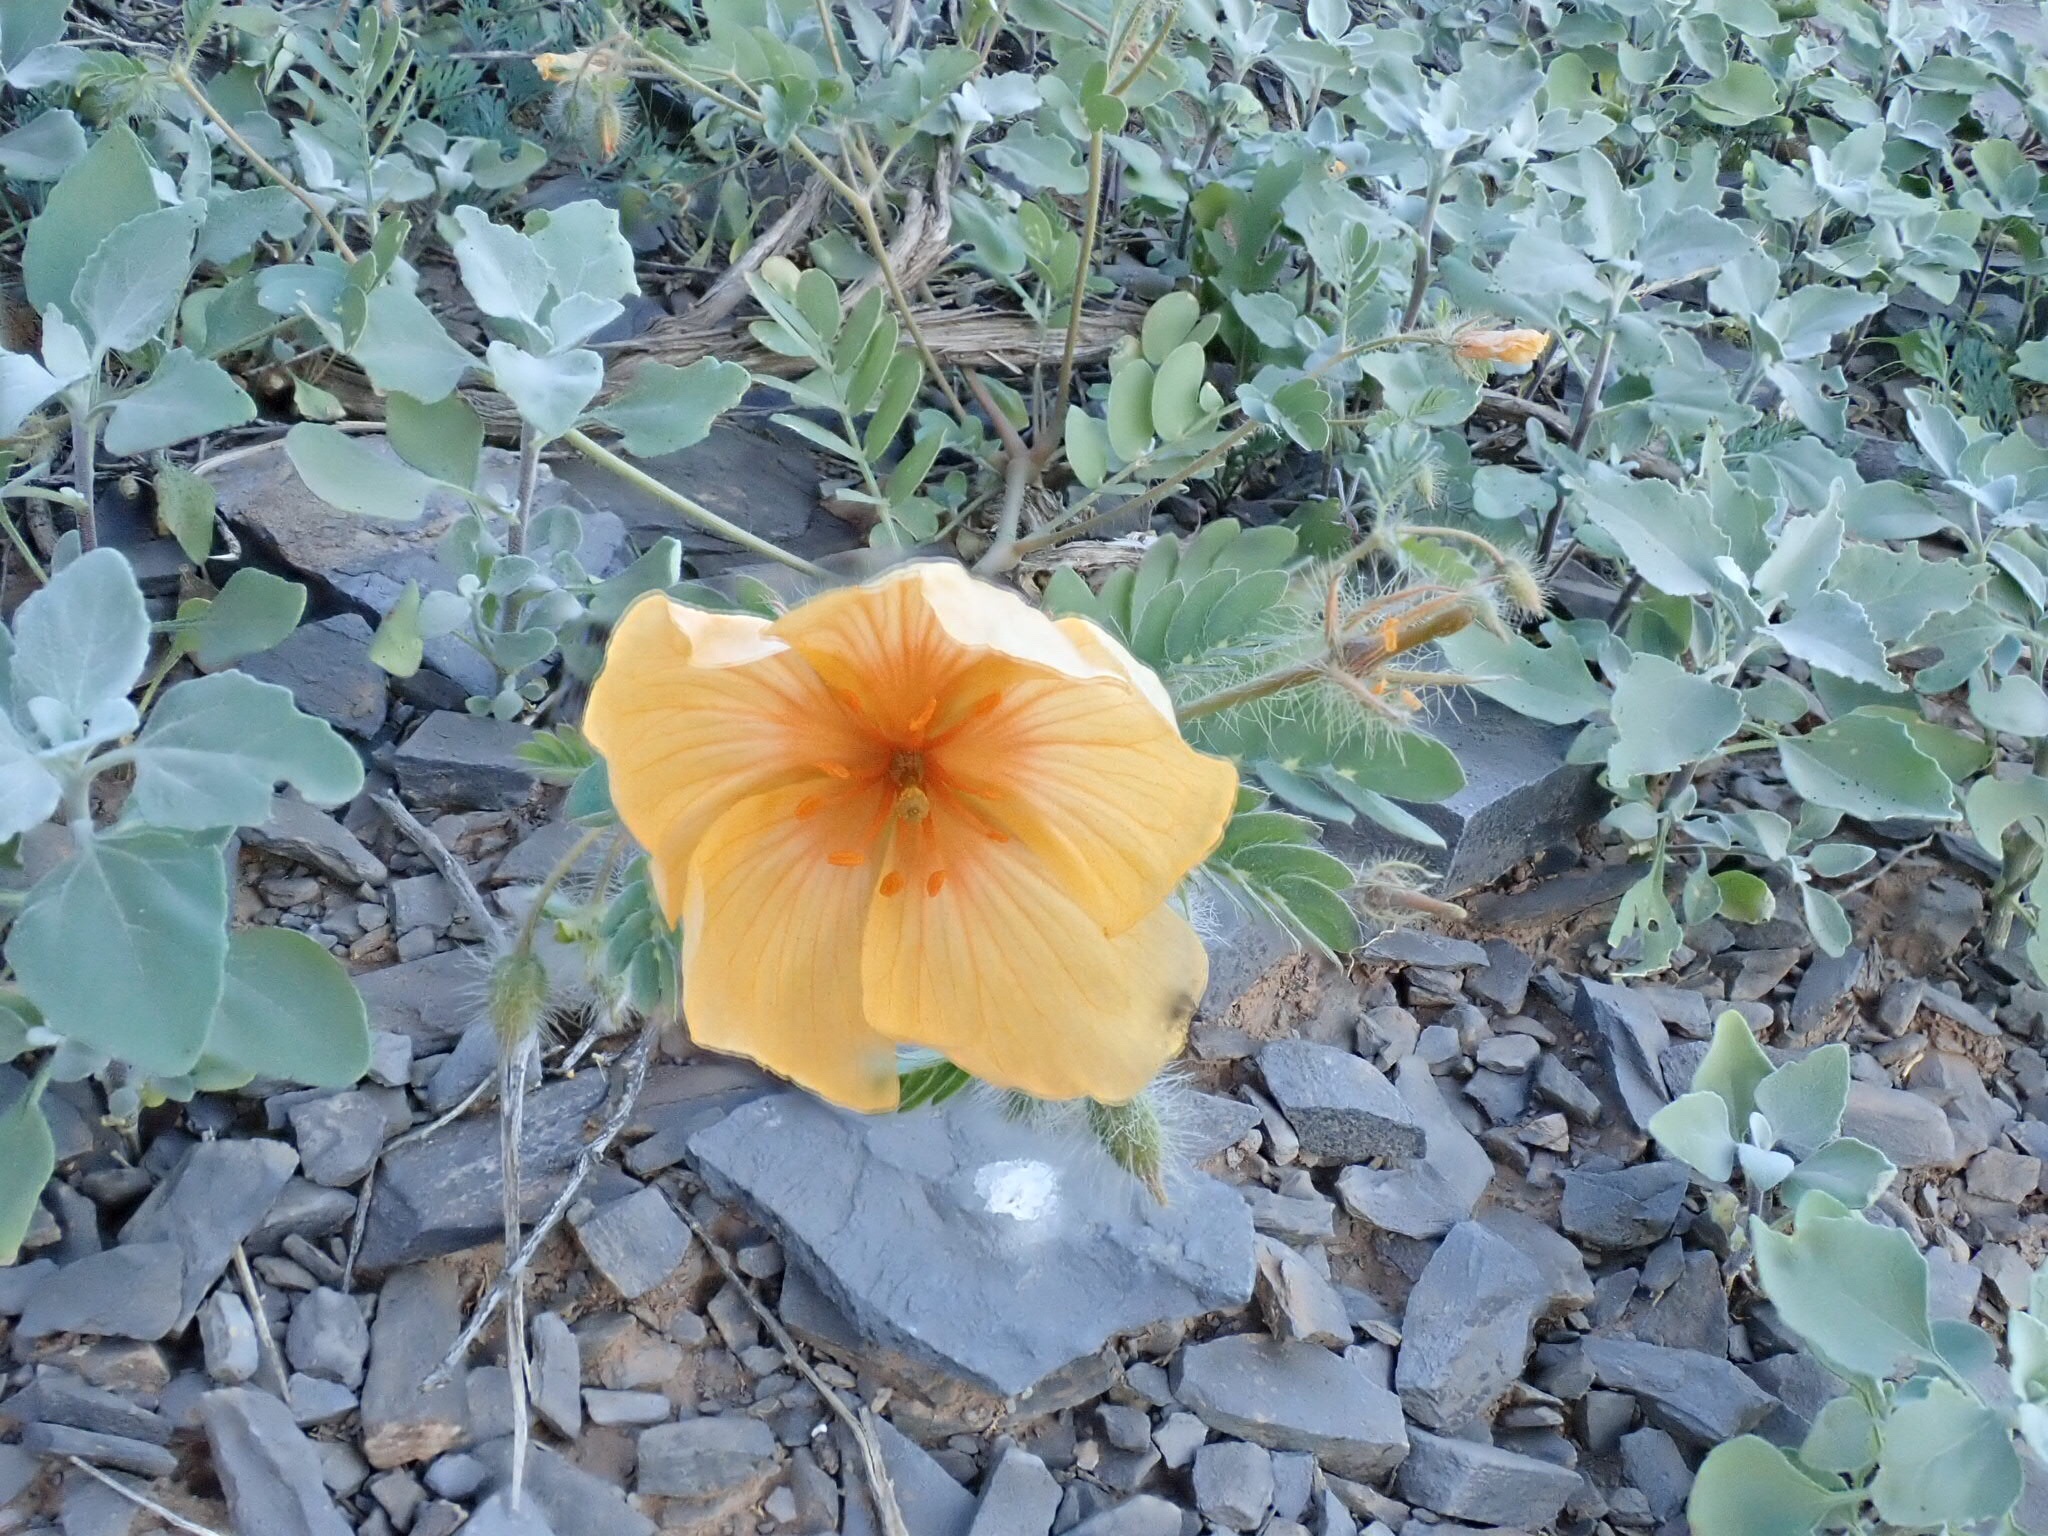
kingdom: Plantae
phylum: Tracheophyta
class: Magnoliopsida
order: Zygophyllales
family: Zygophyllaceae
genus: Kallstroemia
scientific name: Kallstroemia grandiflora
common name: Arizona-poppy
